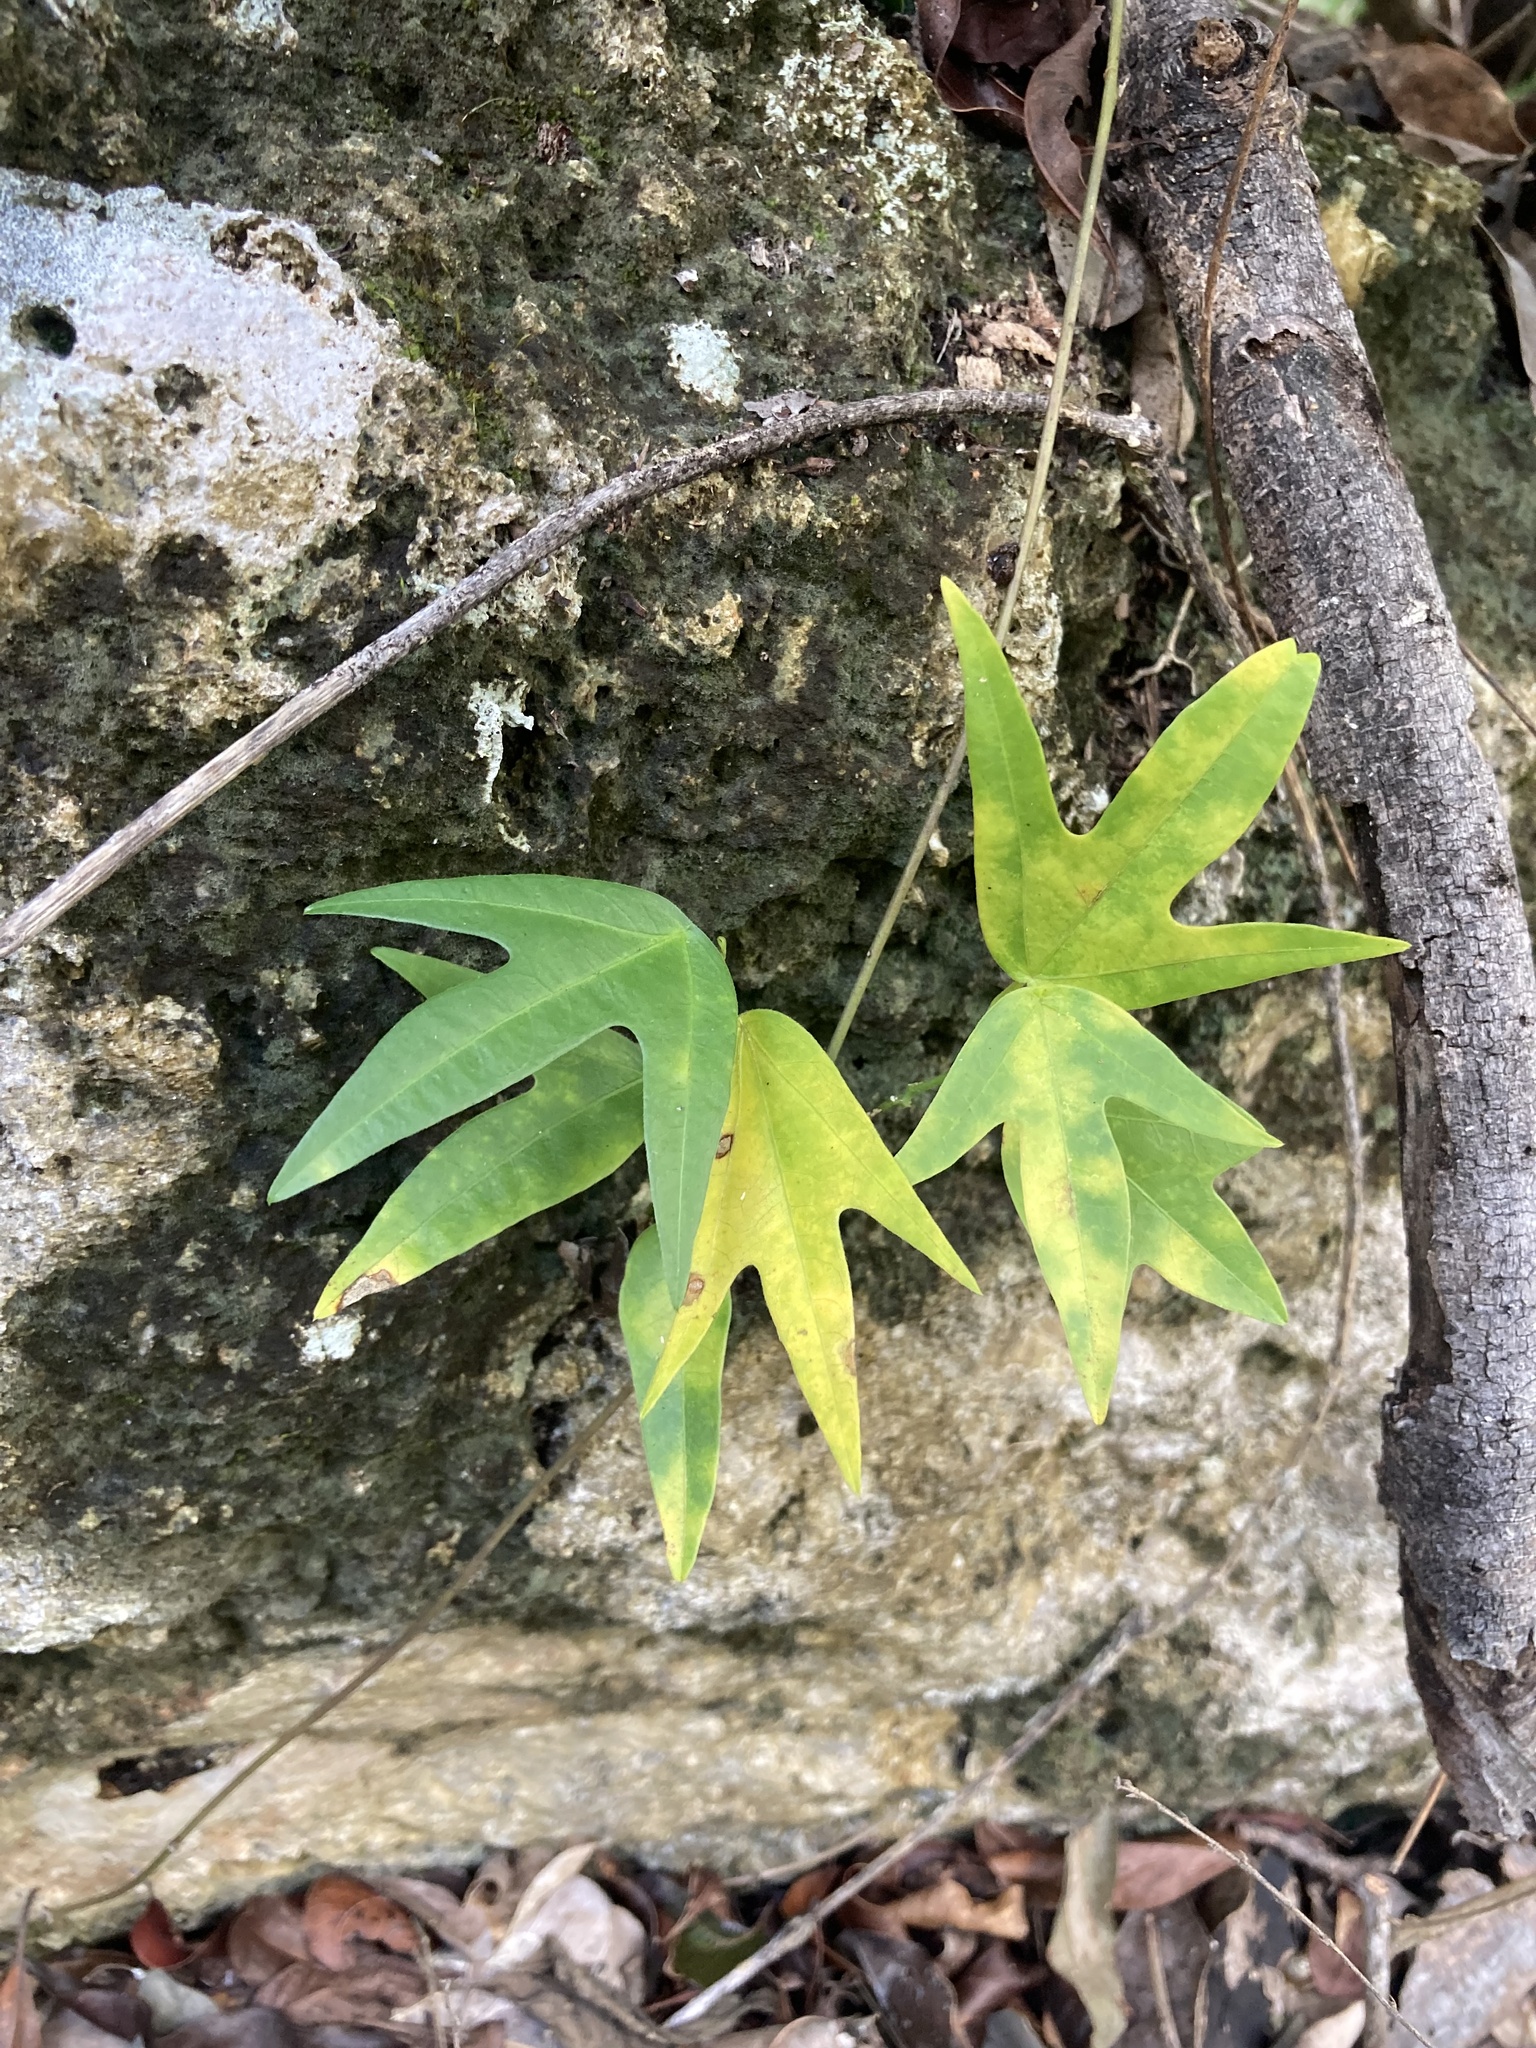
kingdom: Plantae
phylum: Tracheophyta
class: Magnoliopsida
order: Malpighiales
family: Passifloraceae
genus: Passiflora
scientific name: Passiflora pallida
